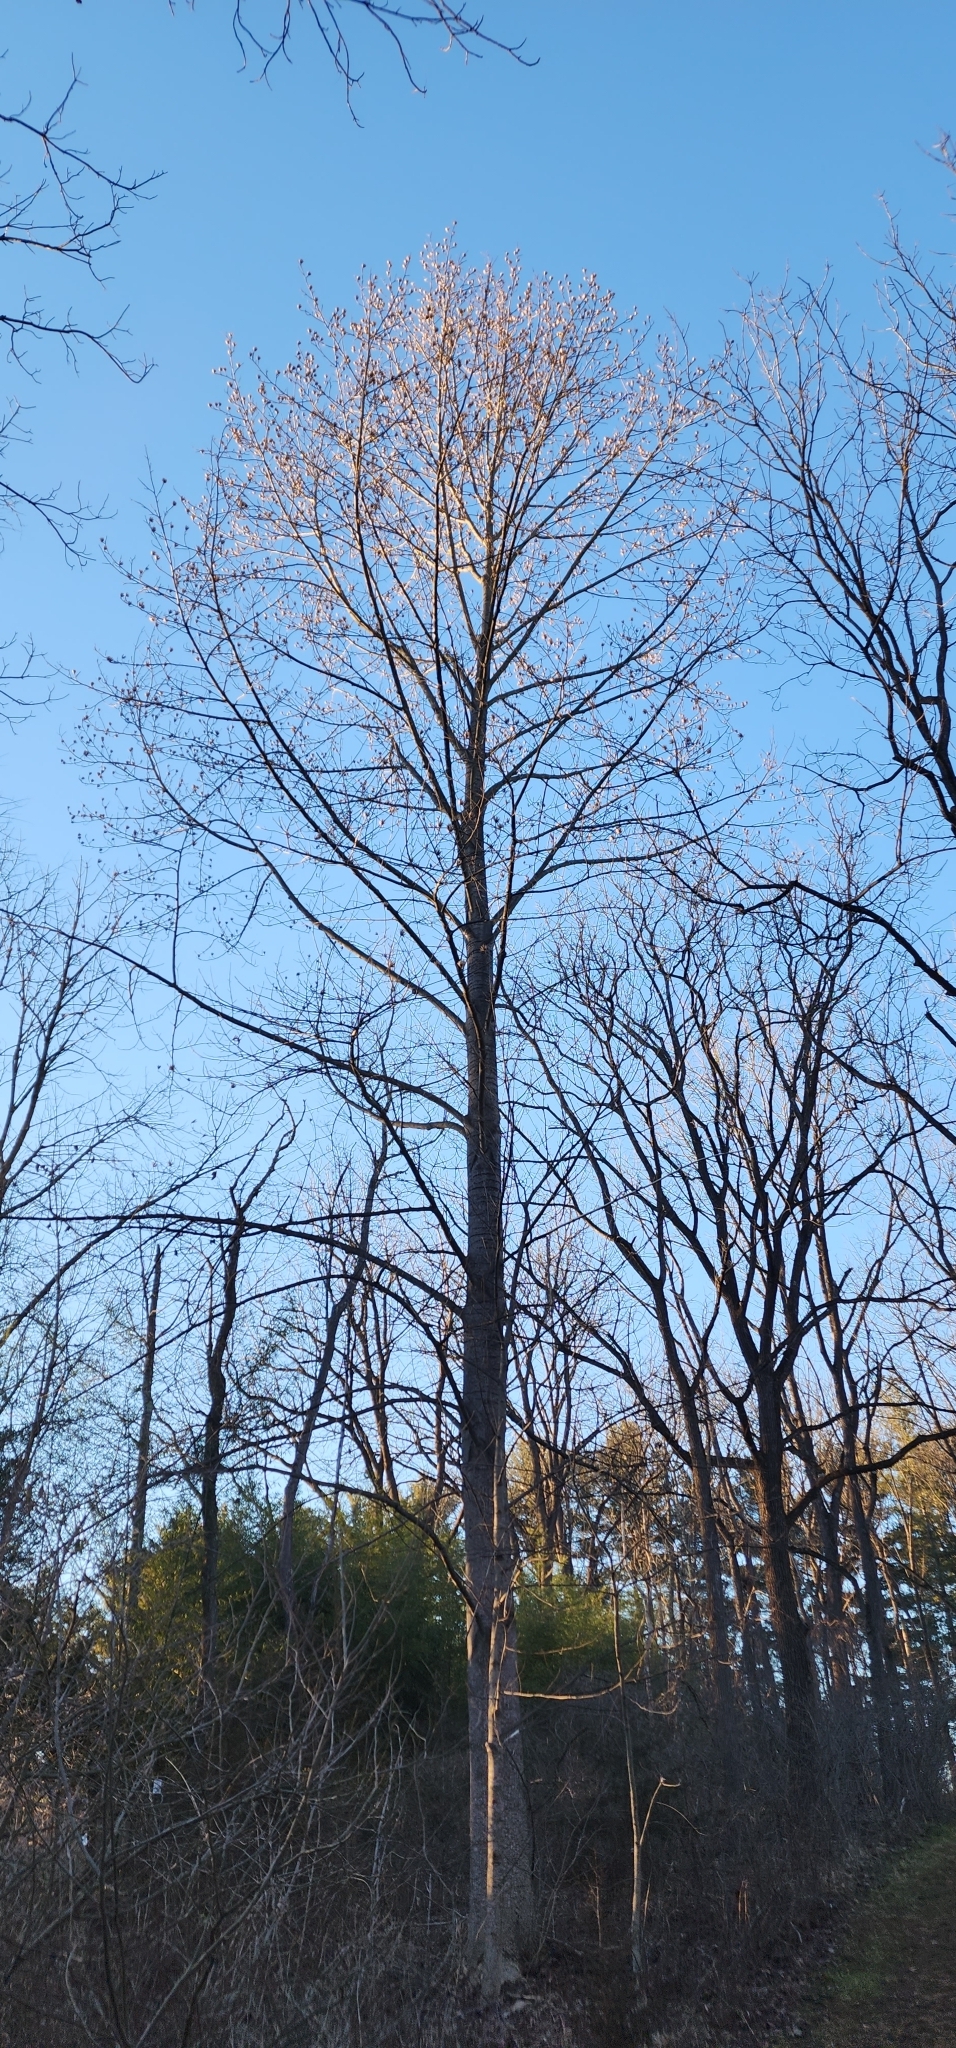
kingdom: Plantae
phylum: Tracheophyta
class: Magnoliopsida
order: Magnoliales
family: Magnoliaceae
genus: Liriodendron
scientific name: Liriodendron tulipifera
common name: Tulip tree
